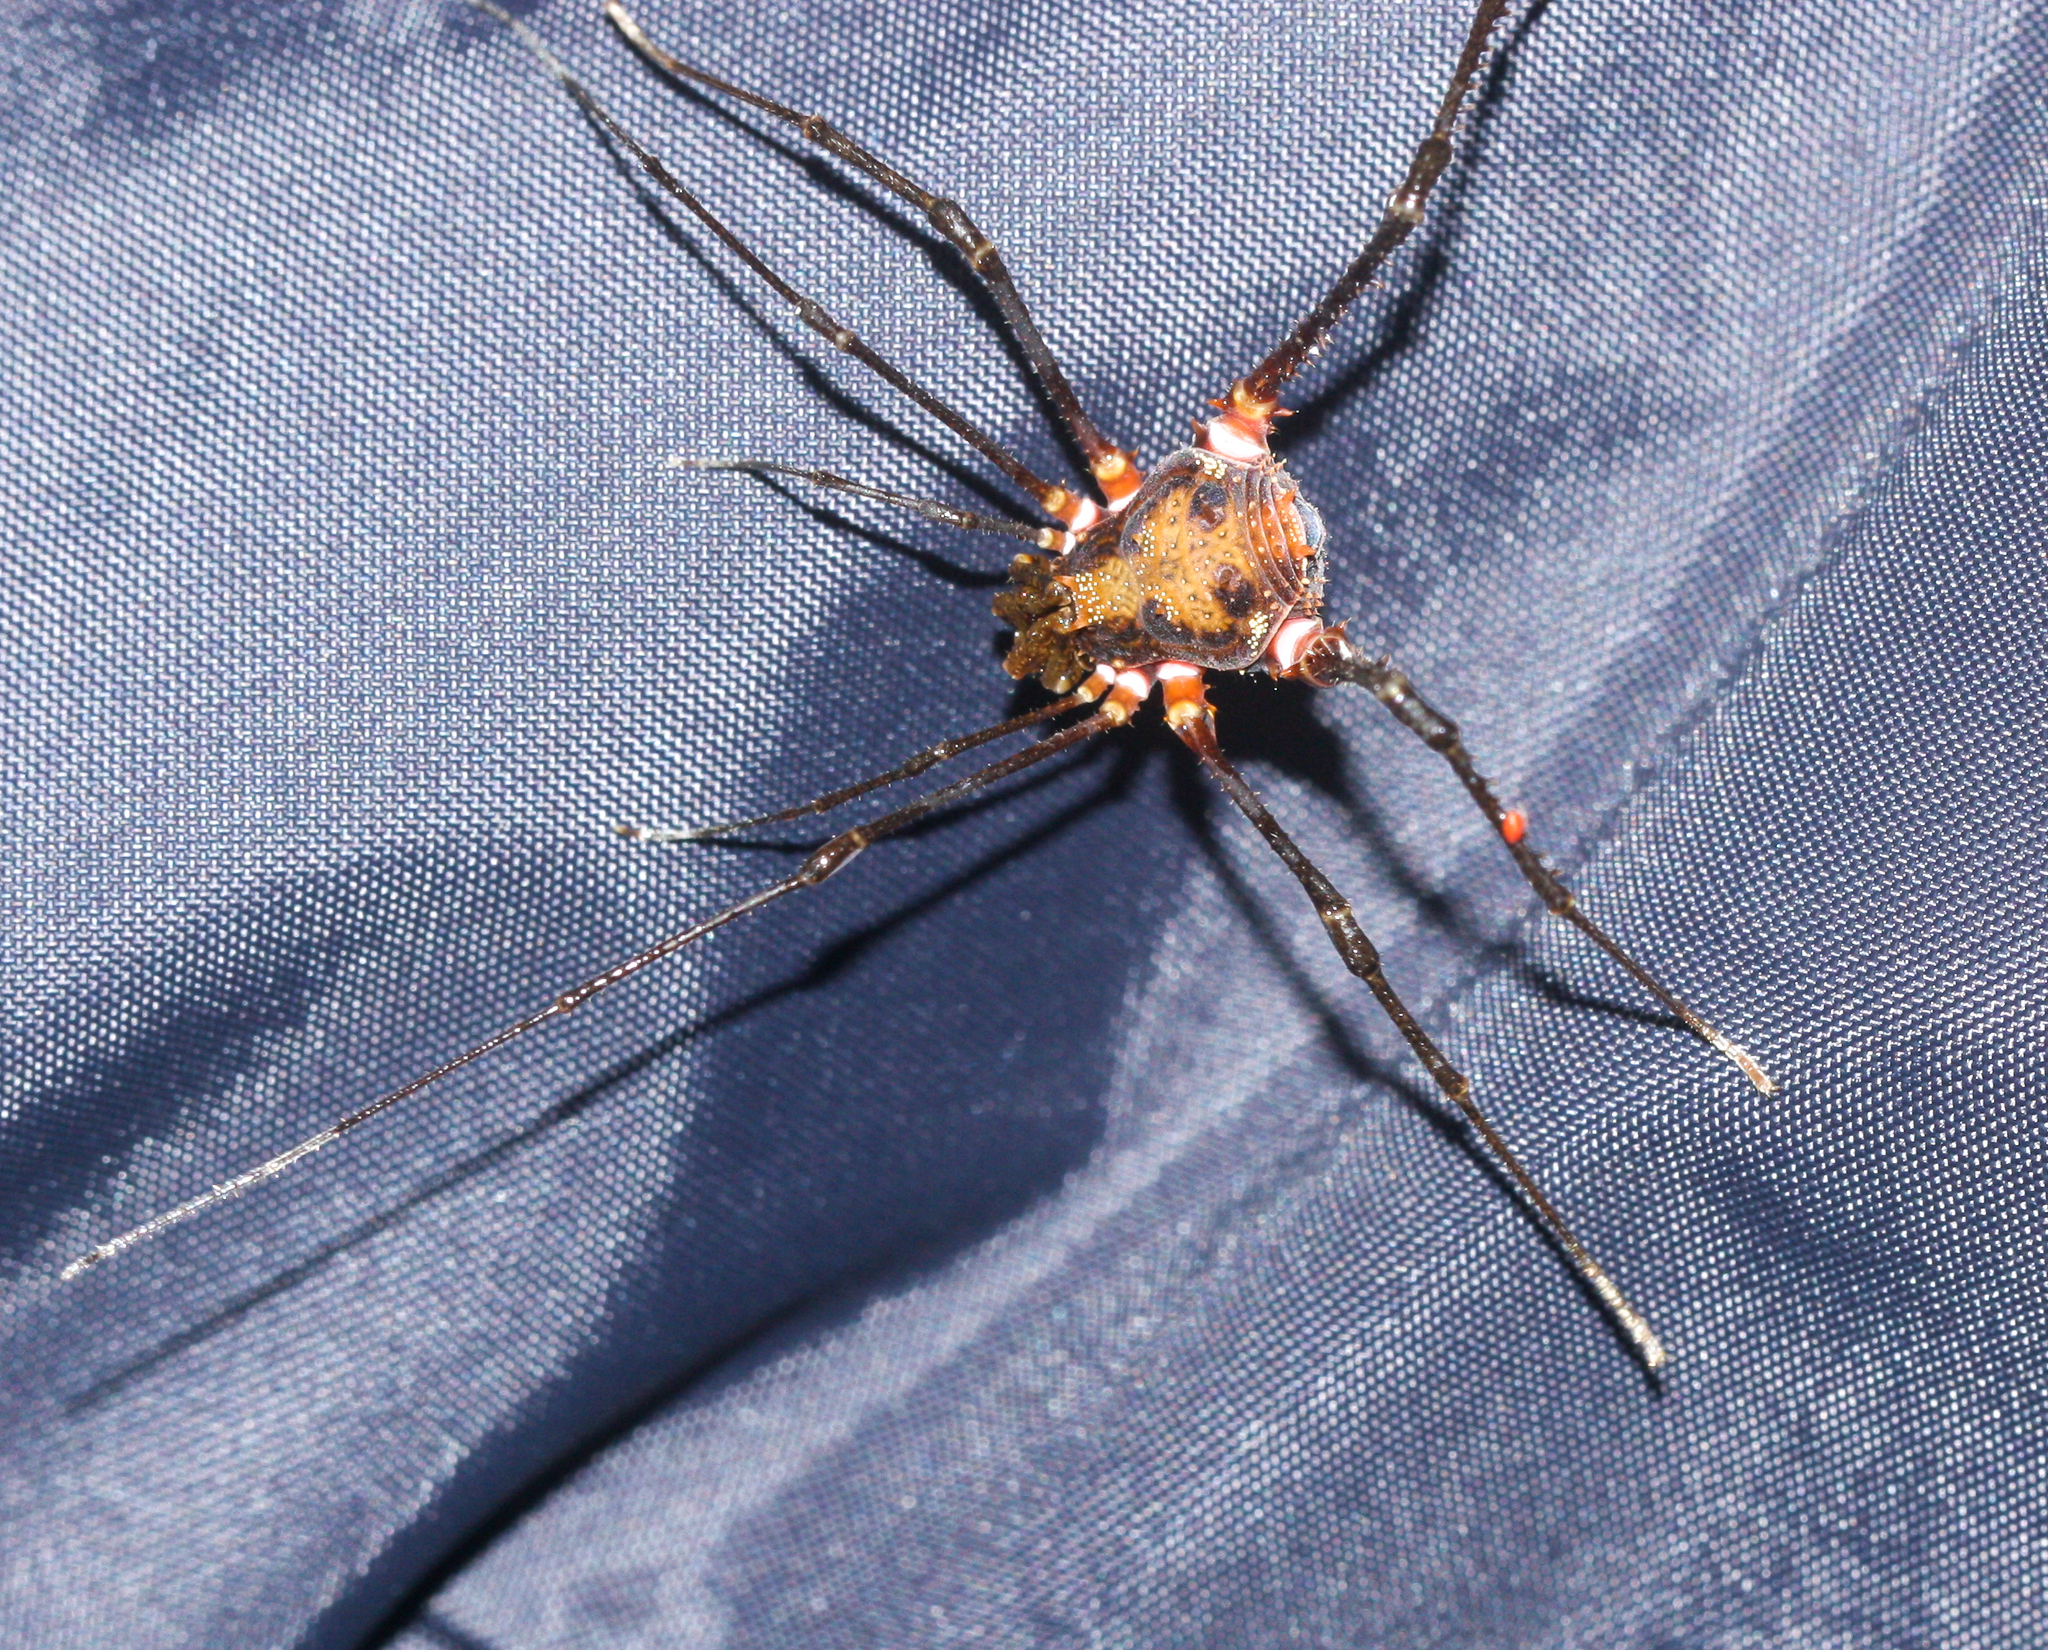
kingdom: Animalia
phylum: Arthropoda
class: Arachnida
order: Opiliones
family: Cranaidae
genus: Nieblia
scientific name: Nieblia arthrocentrica
